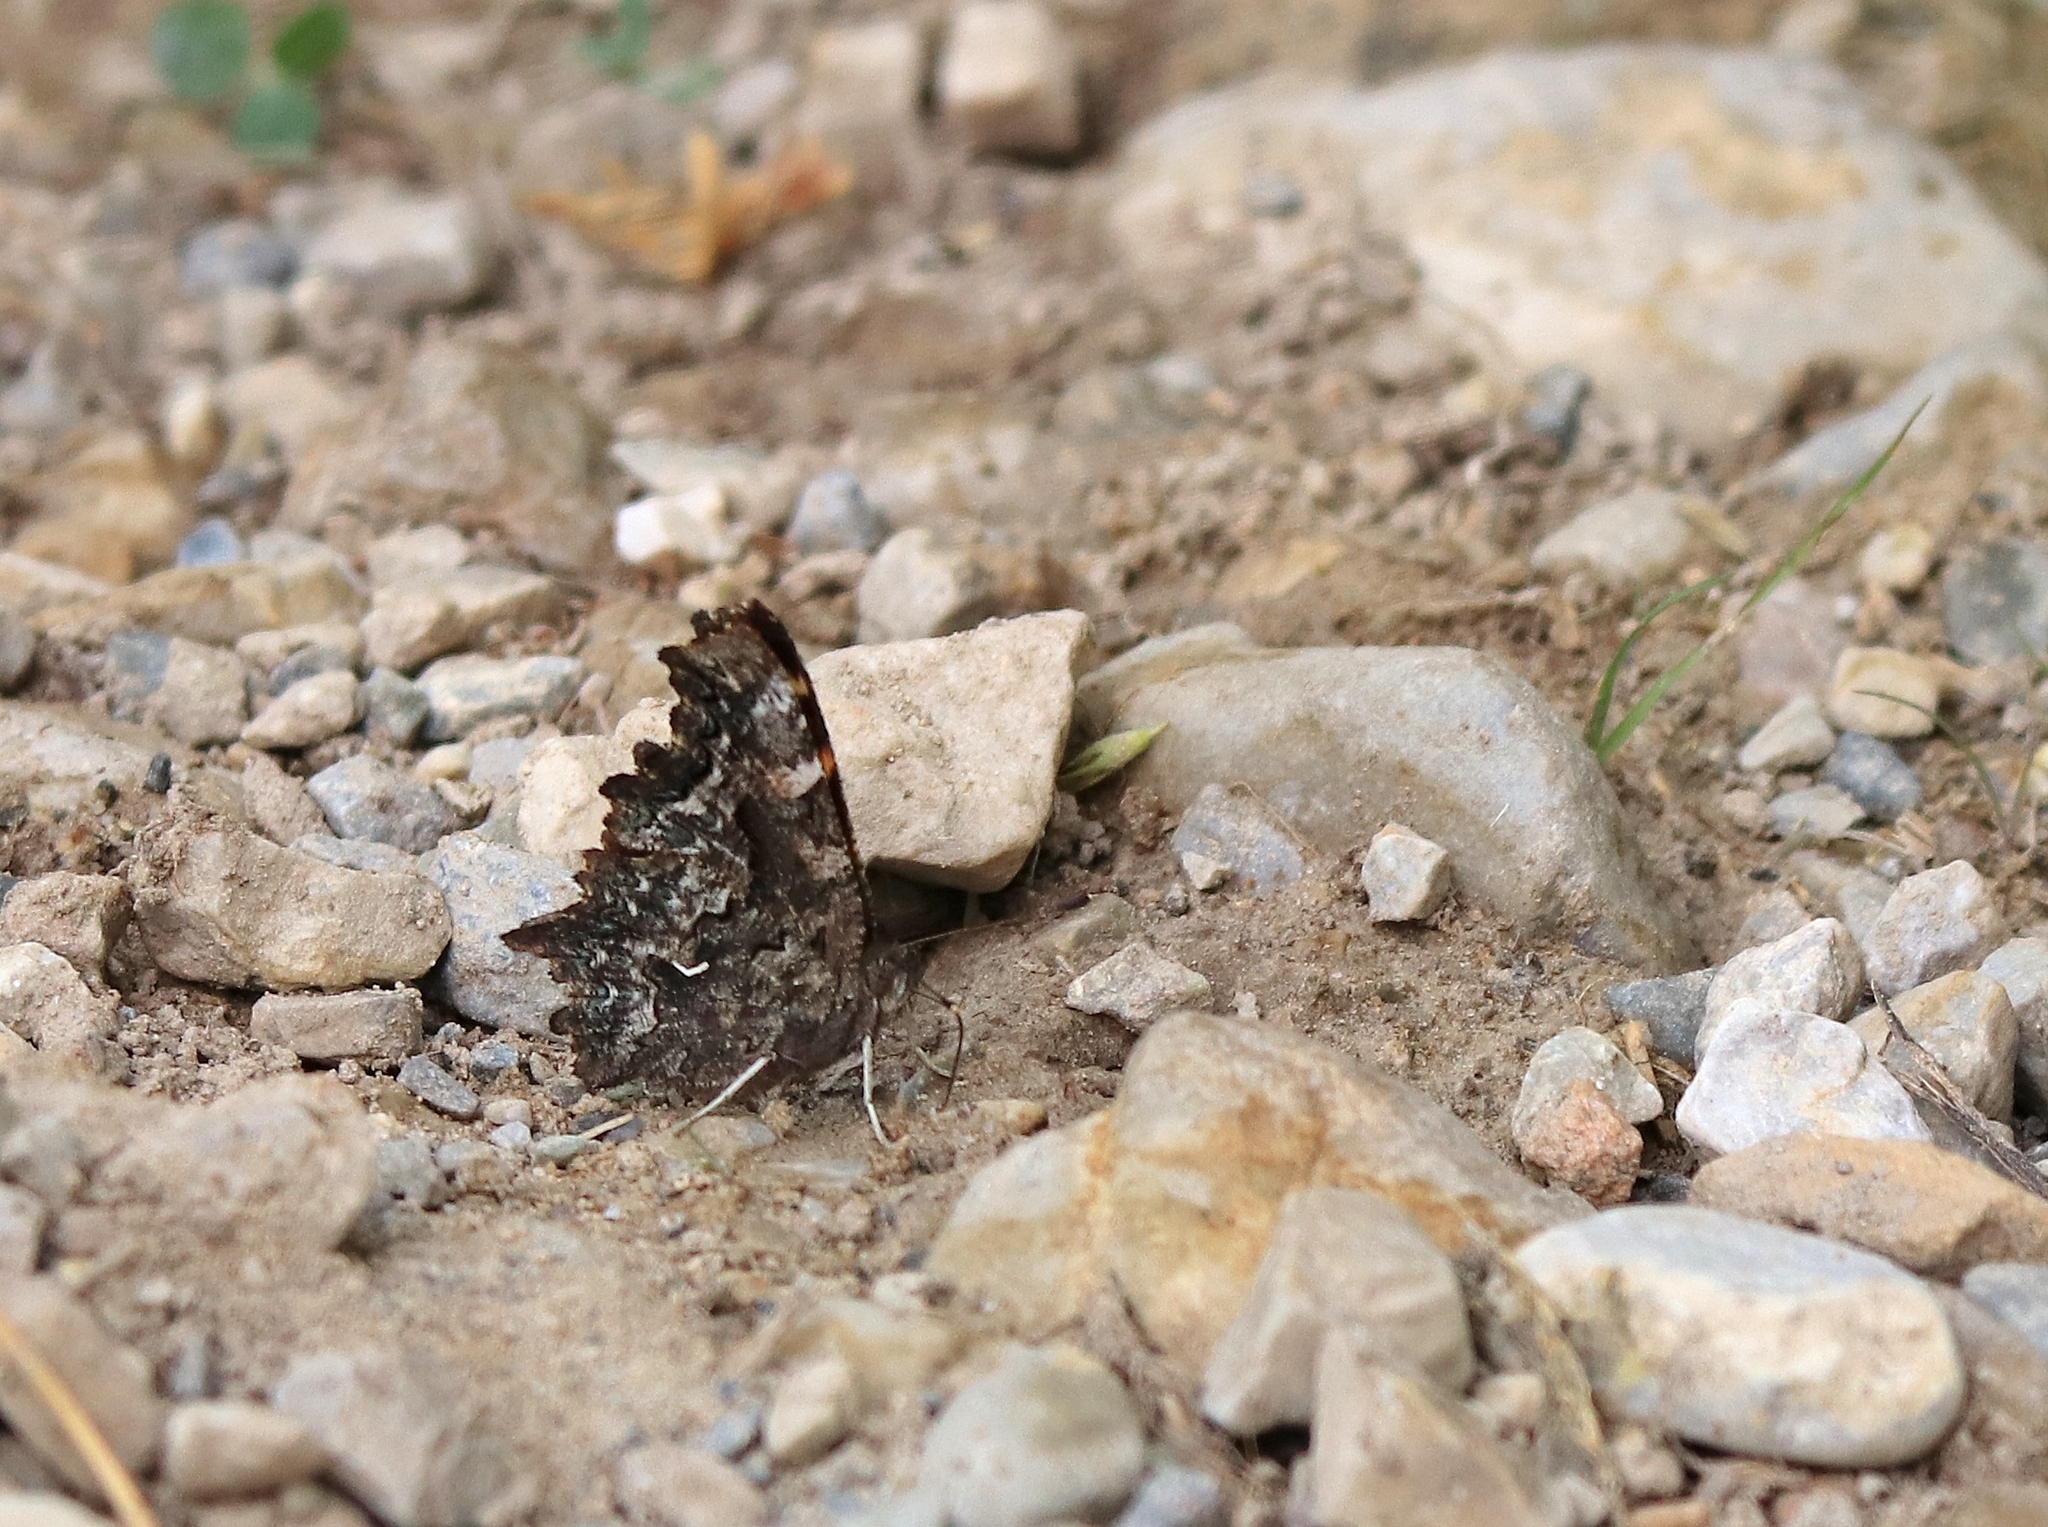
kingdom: Animalia
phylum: Arthropoda
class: Insecta
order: Lepidoptera
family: Nymphalidae
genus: Polygonia
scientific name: Polygonia faunus
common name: Green comma
